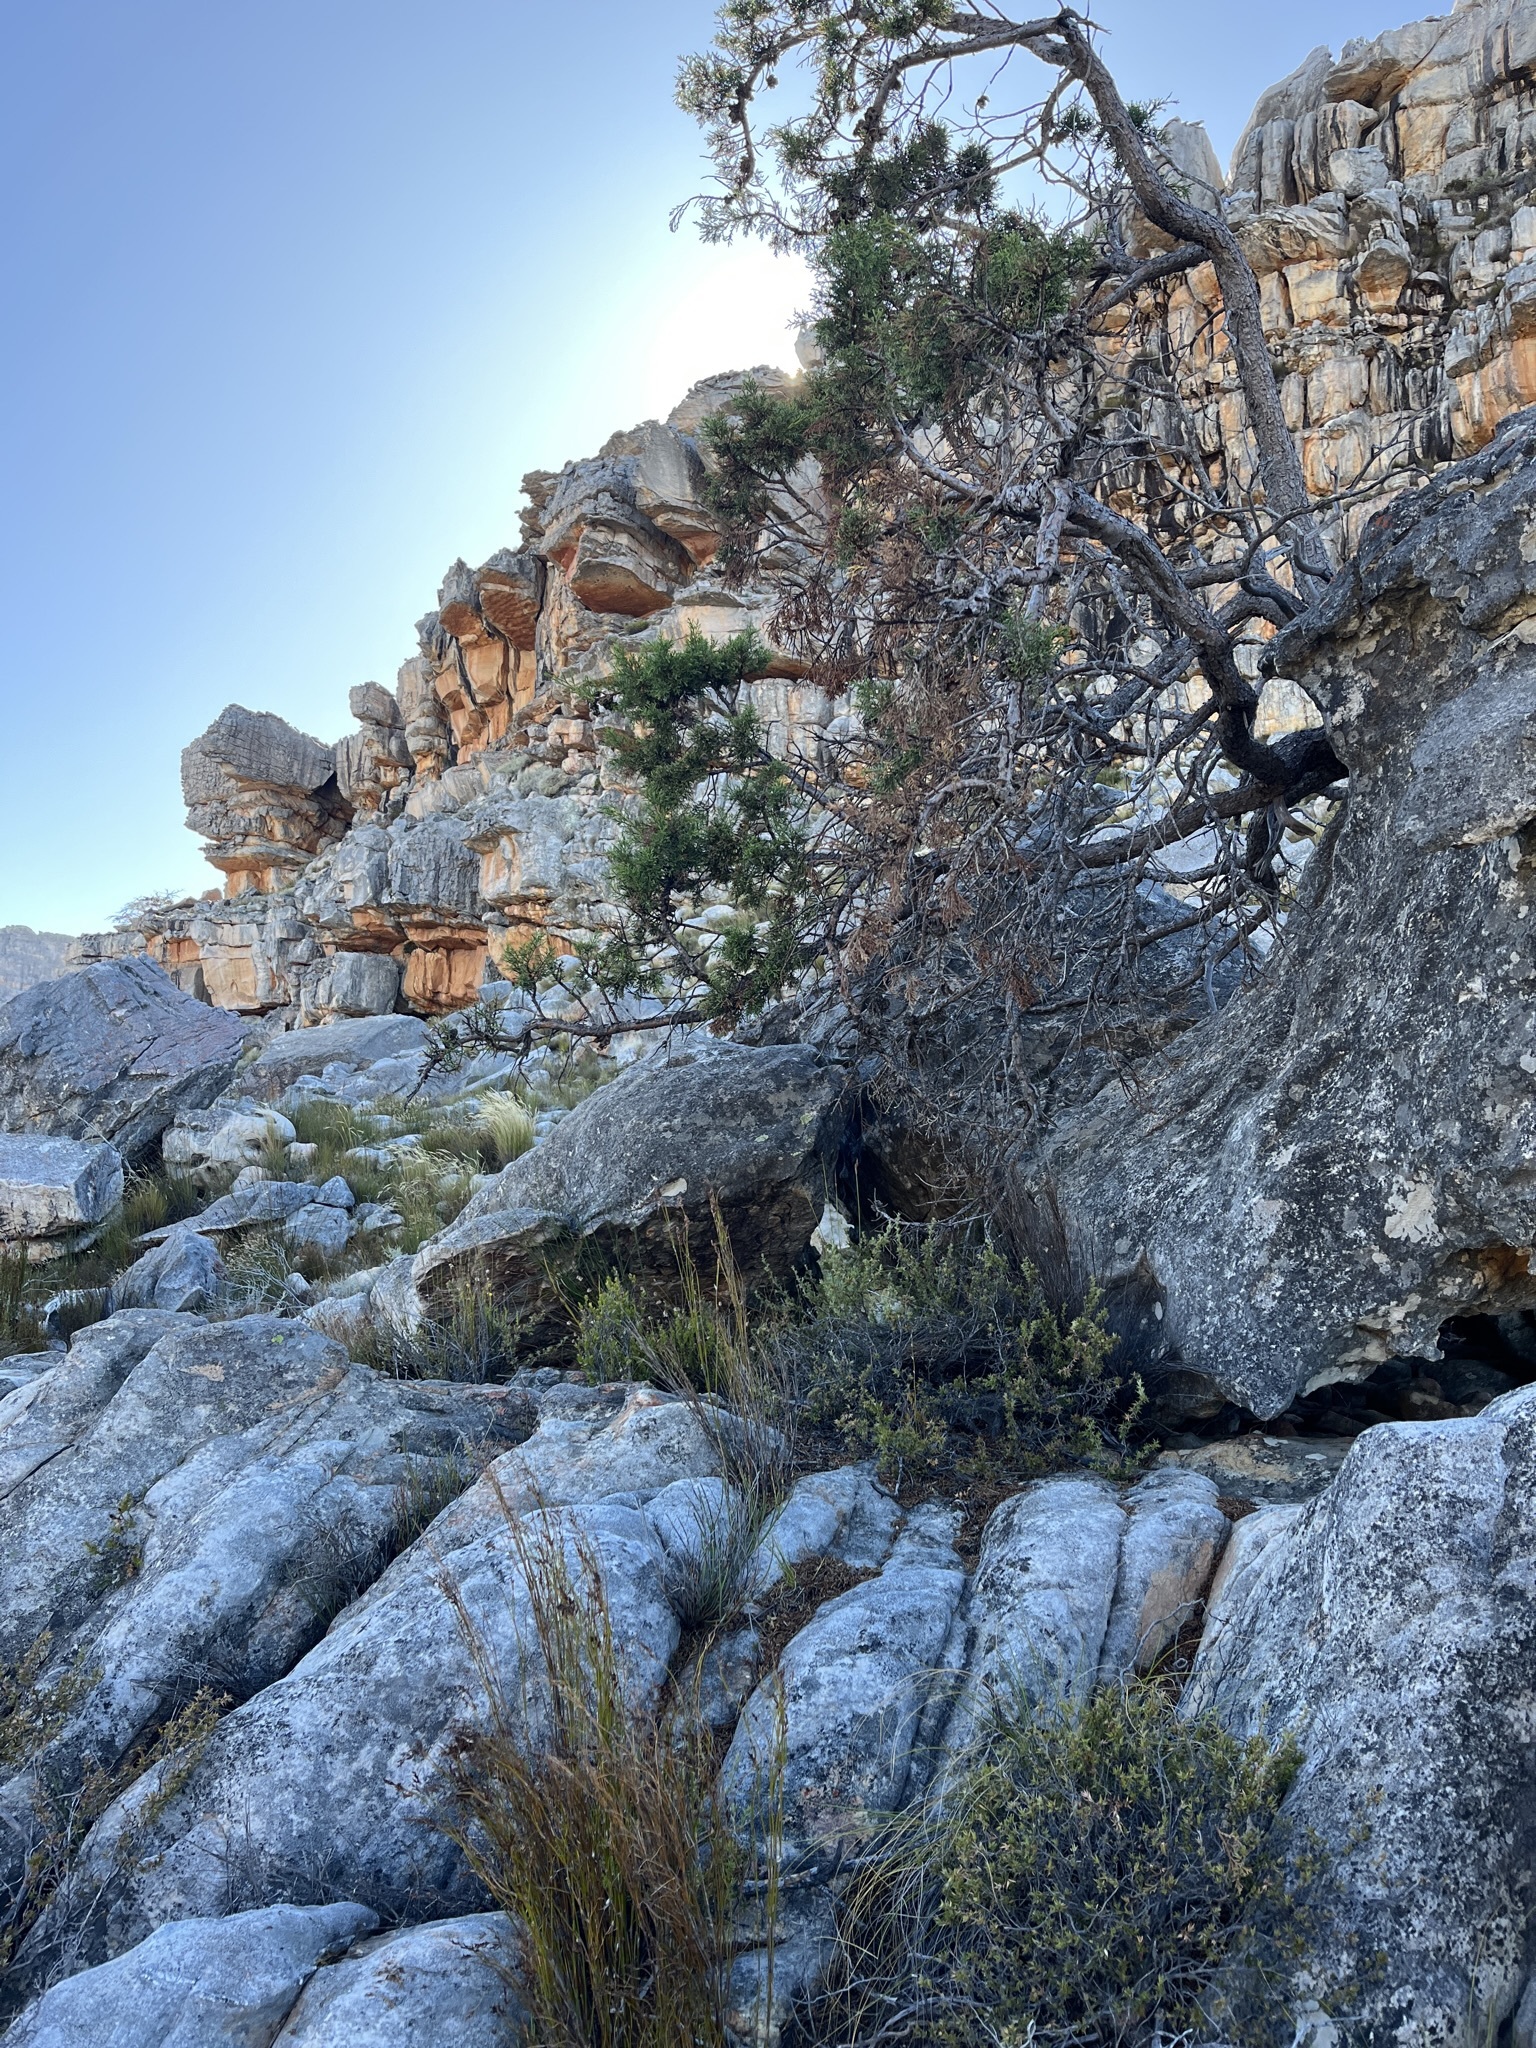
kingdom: Plantae
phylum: Tracheophyta
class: Pinopsida
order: Pinales
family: Cupressaceae
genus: Widdringtonia
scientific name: Widdringtonia nodiflora
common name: Cape cypress
